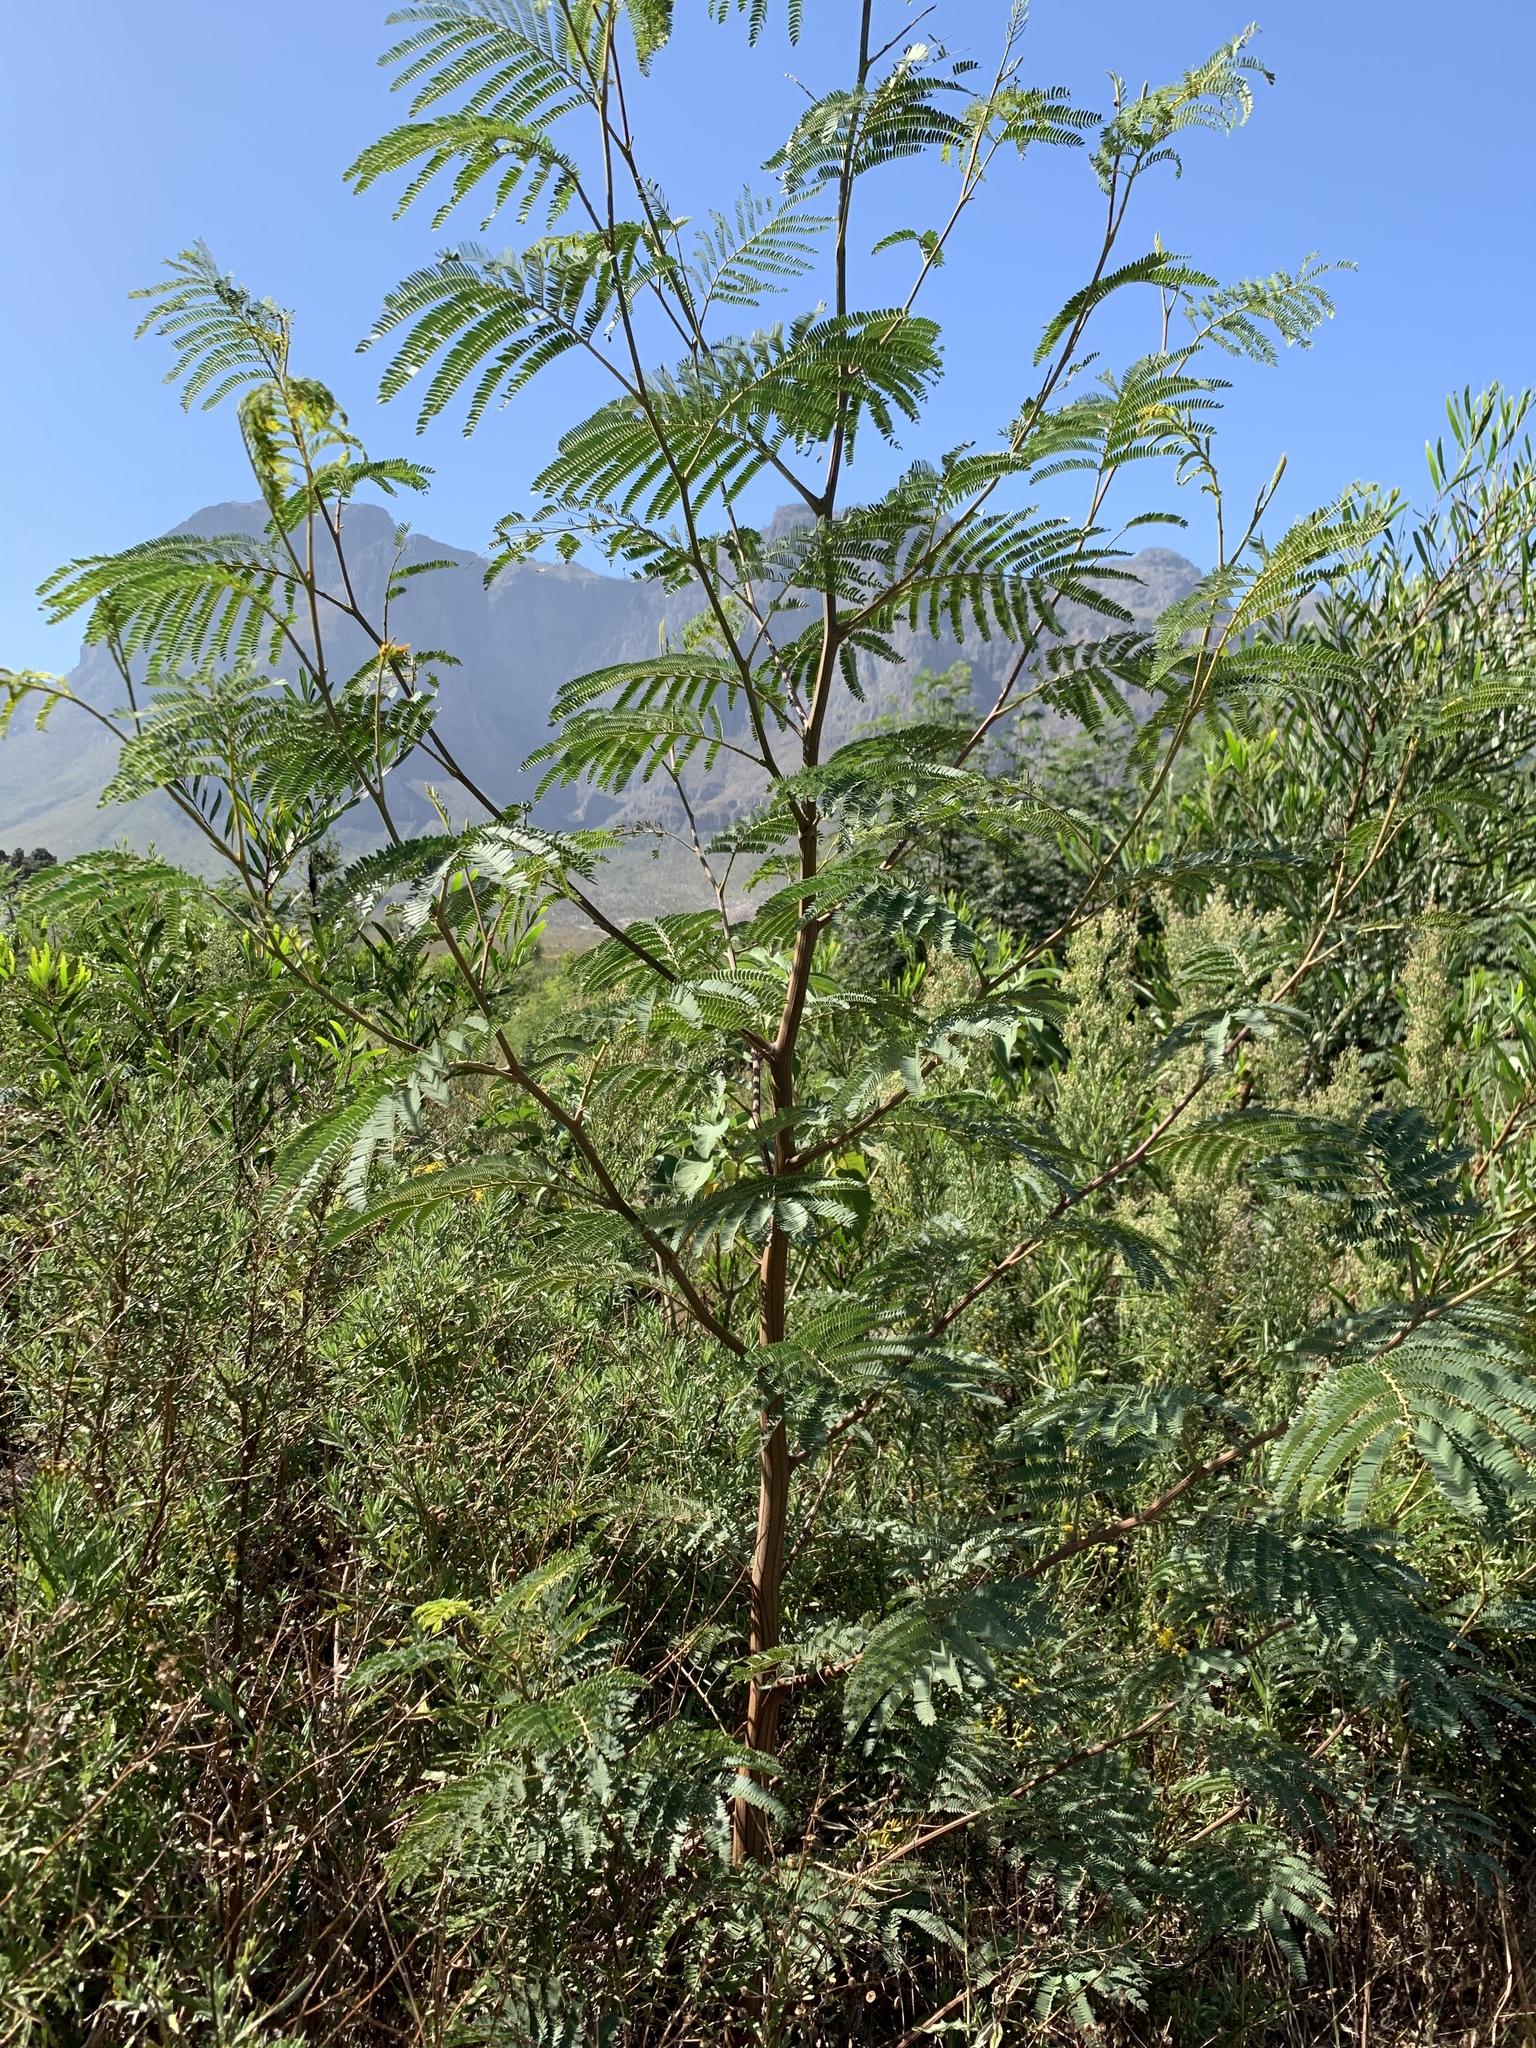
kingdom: Plantae
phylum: Tracheophyta
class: Magnoliopsida
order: Fabales
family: Fabaceae
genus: Paraserianthes
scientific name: Paraserianthes lophantha
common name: Plume albizia
